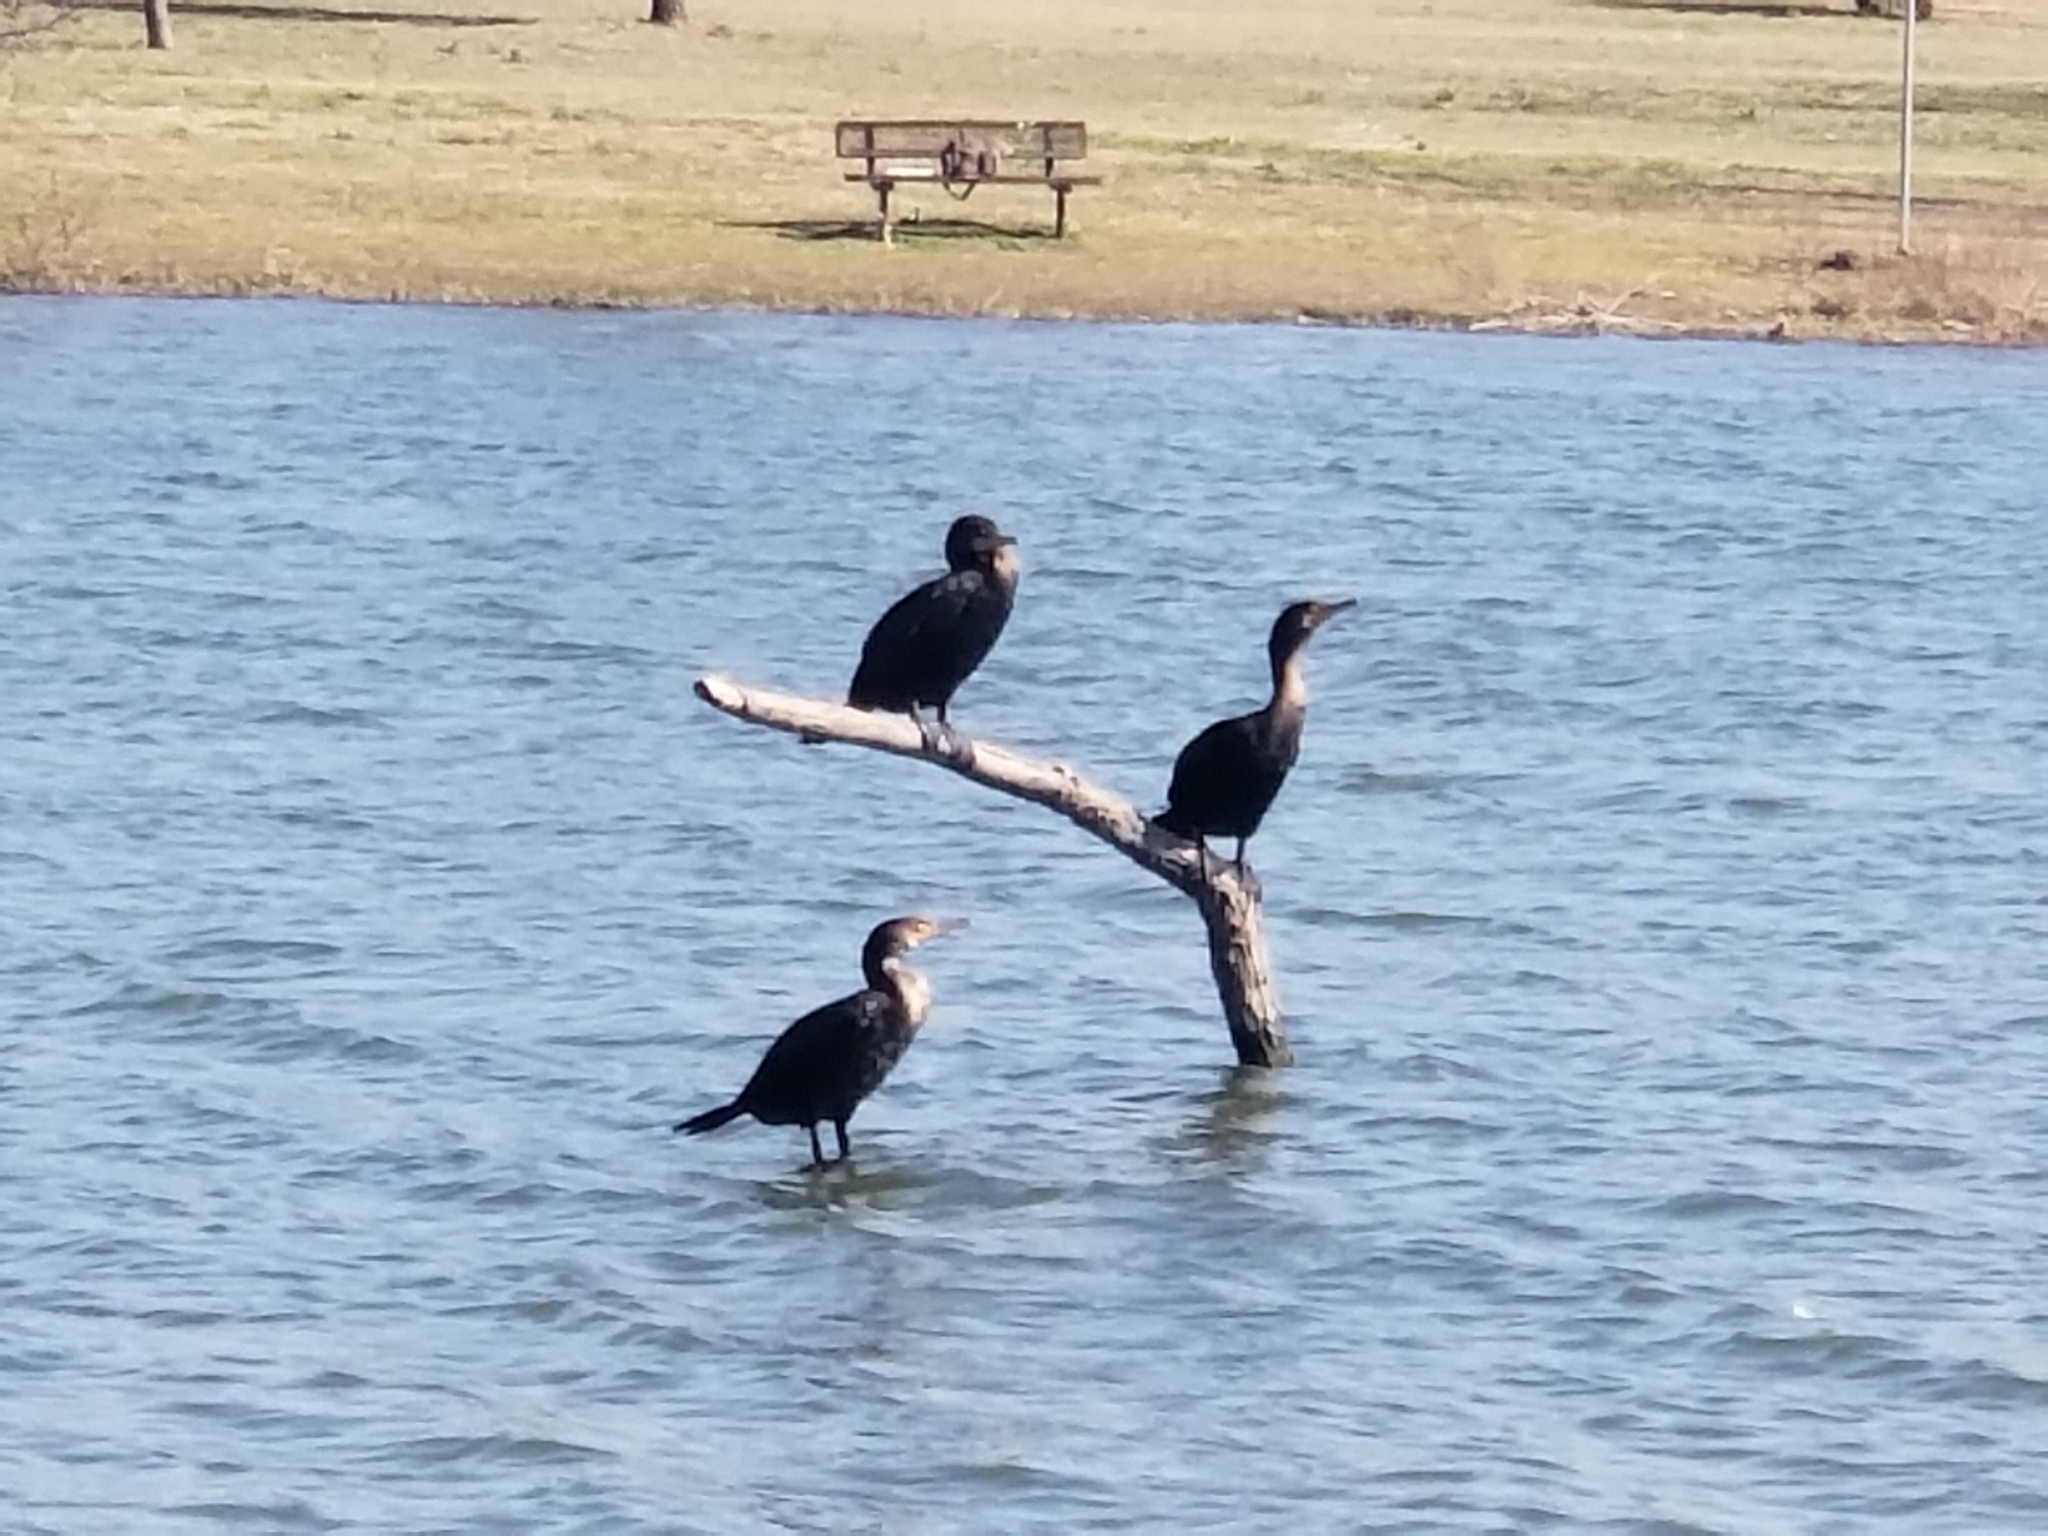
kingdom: Animalia
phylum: Chordata
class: Aves
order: Suliformes
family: Phalacrocoracidae
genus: Phalacrocorax
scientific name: Phalacrocorax auritus
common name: Double-crested cormorant
